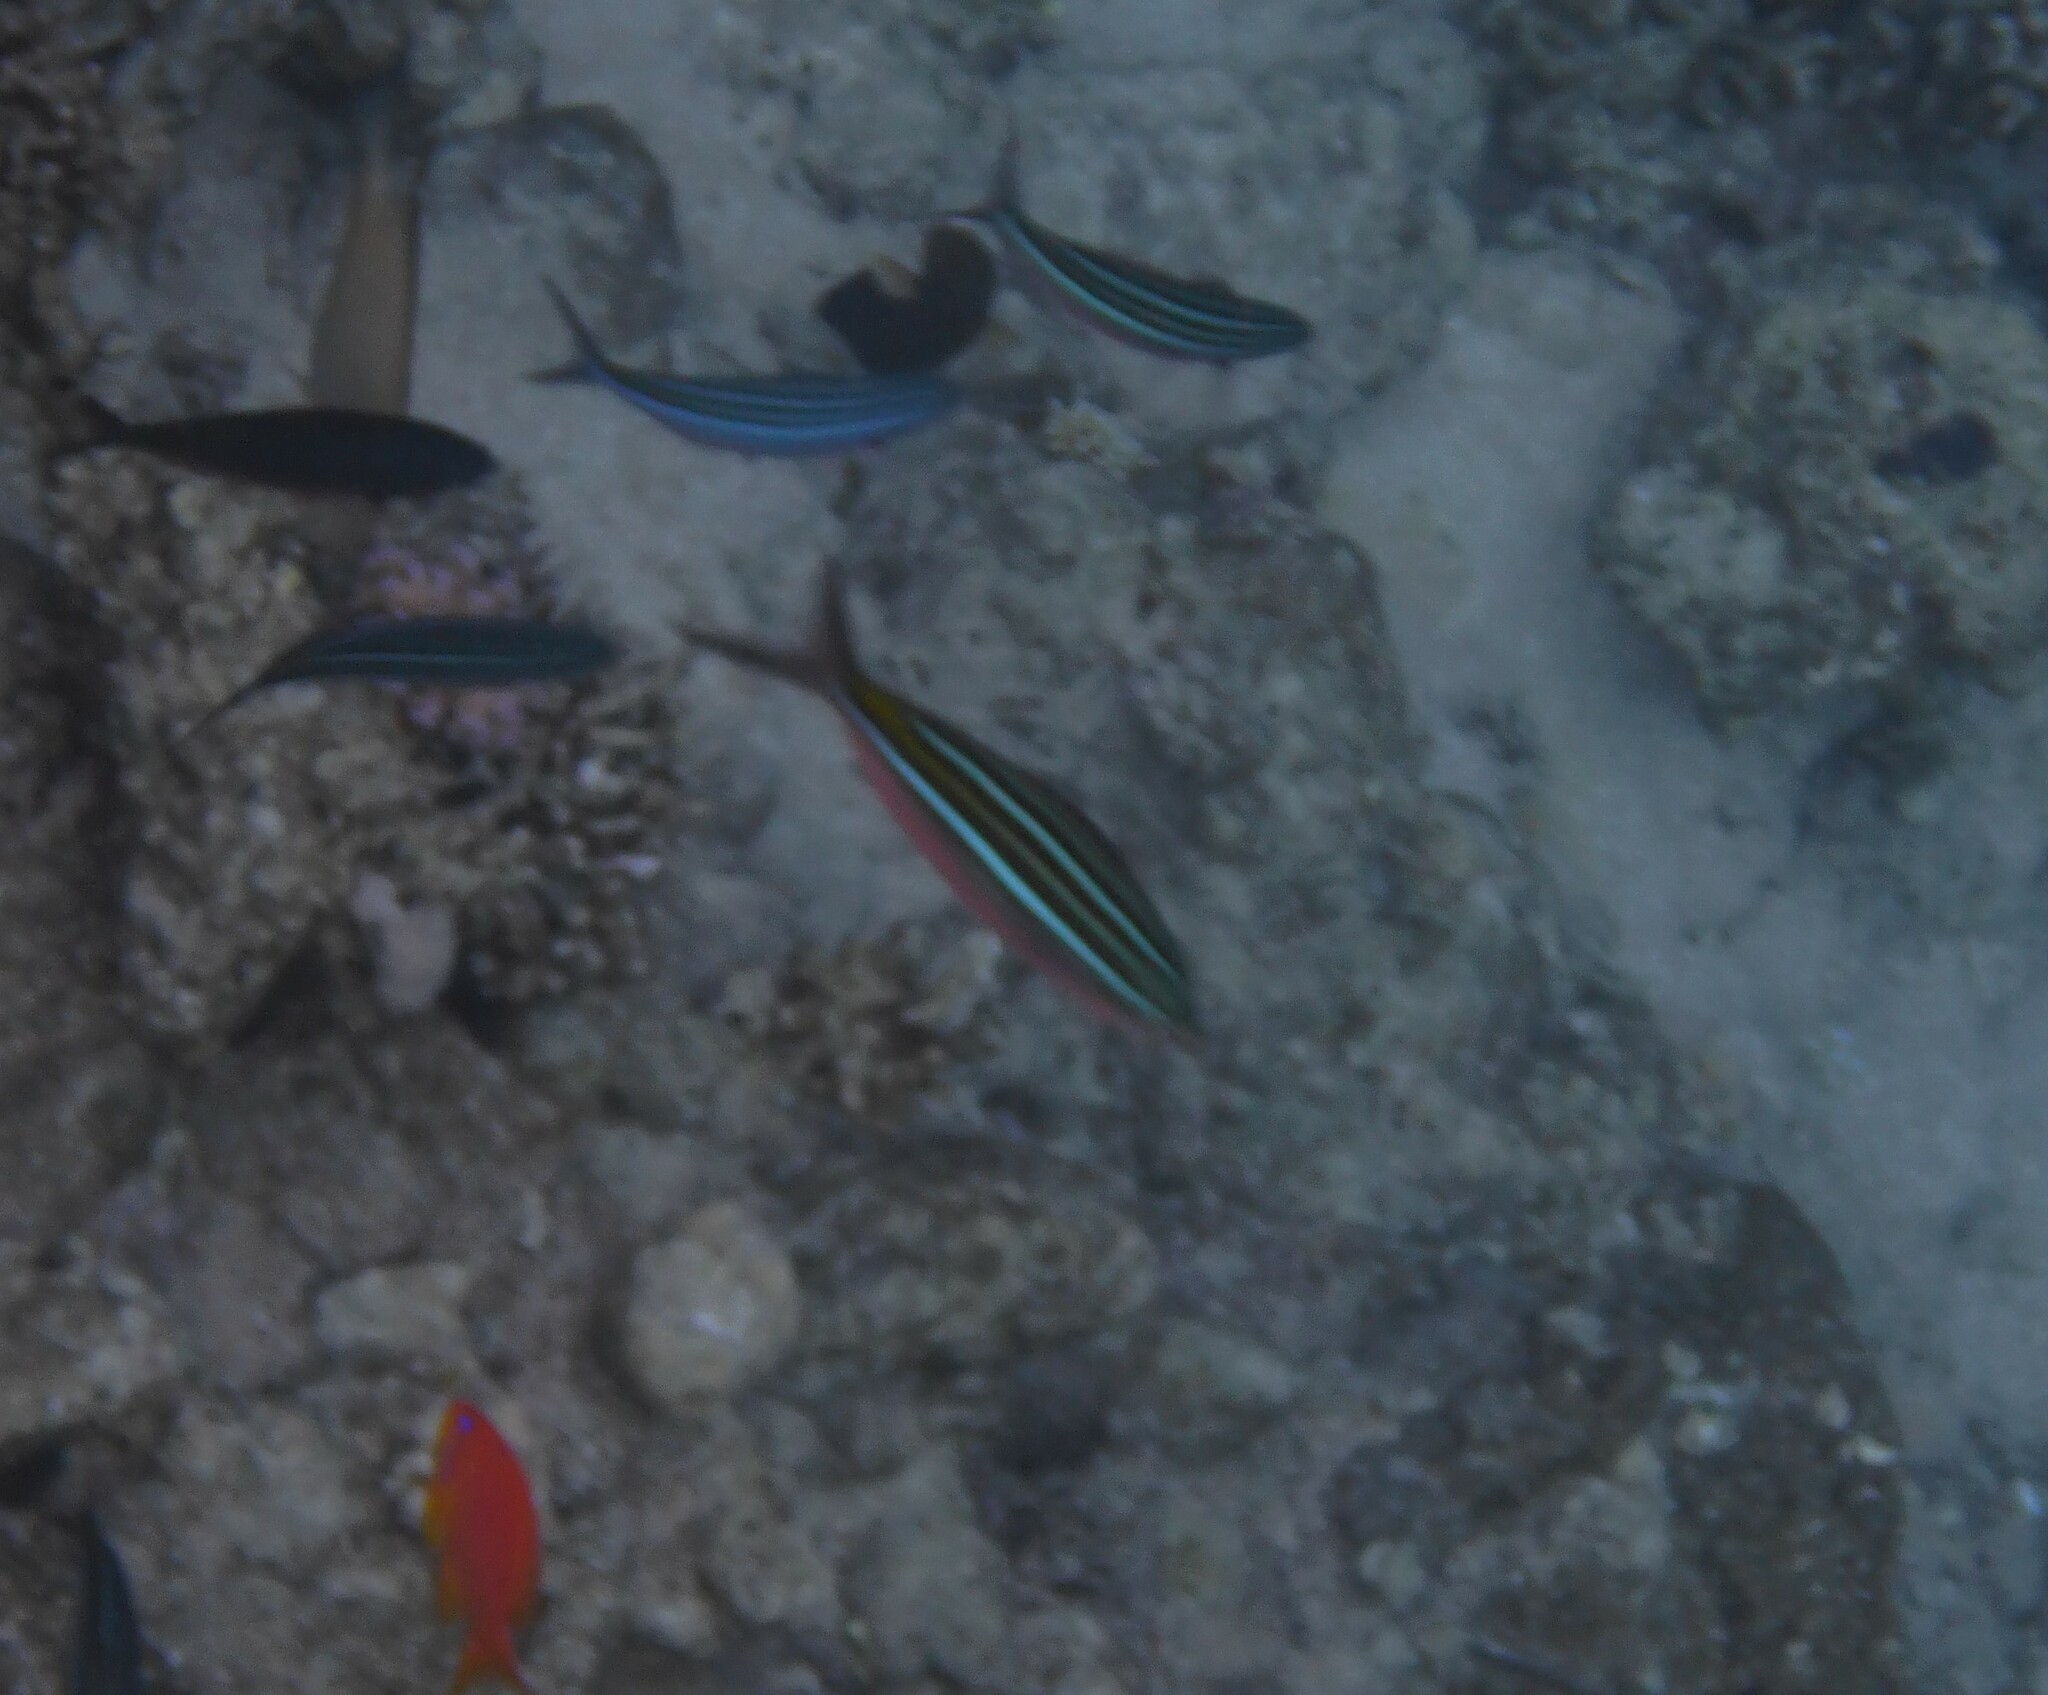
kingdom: Animalia
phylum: Chordata
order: Perciformes
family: Caesionidae
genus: Caesio
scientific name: Caesio striata
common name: Striated fusilier
